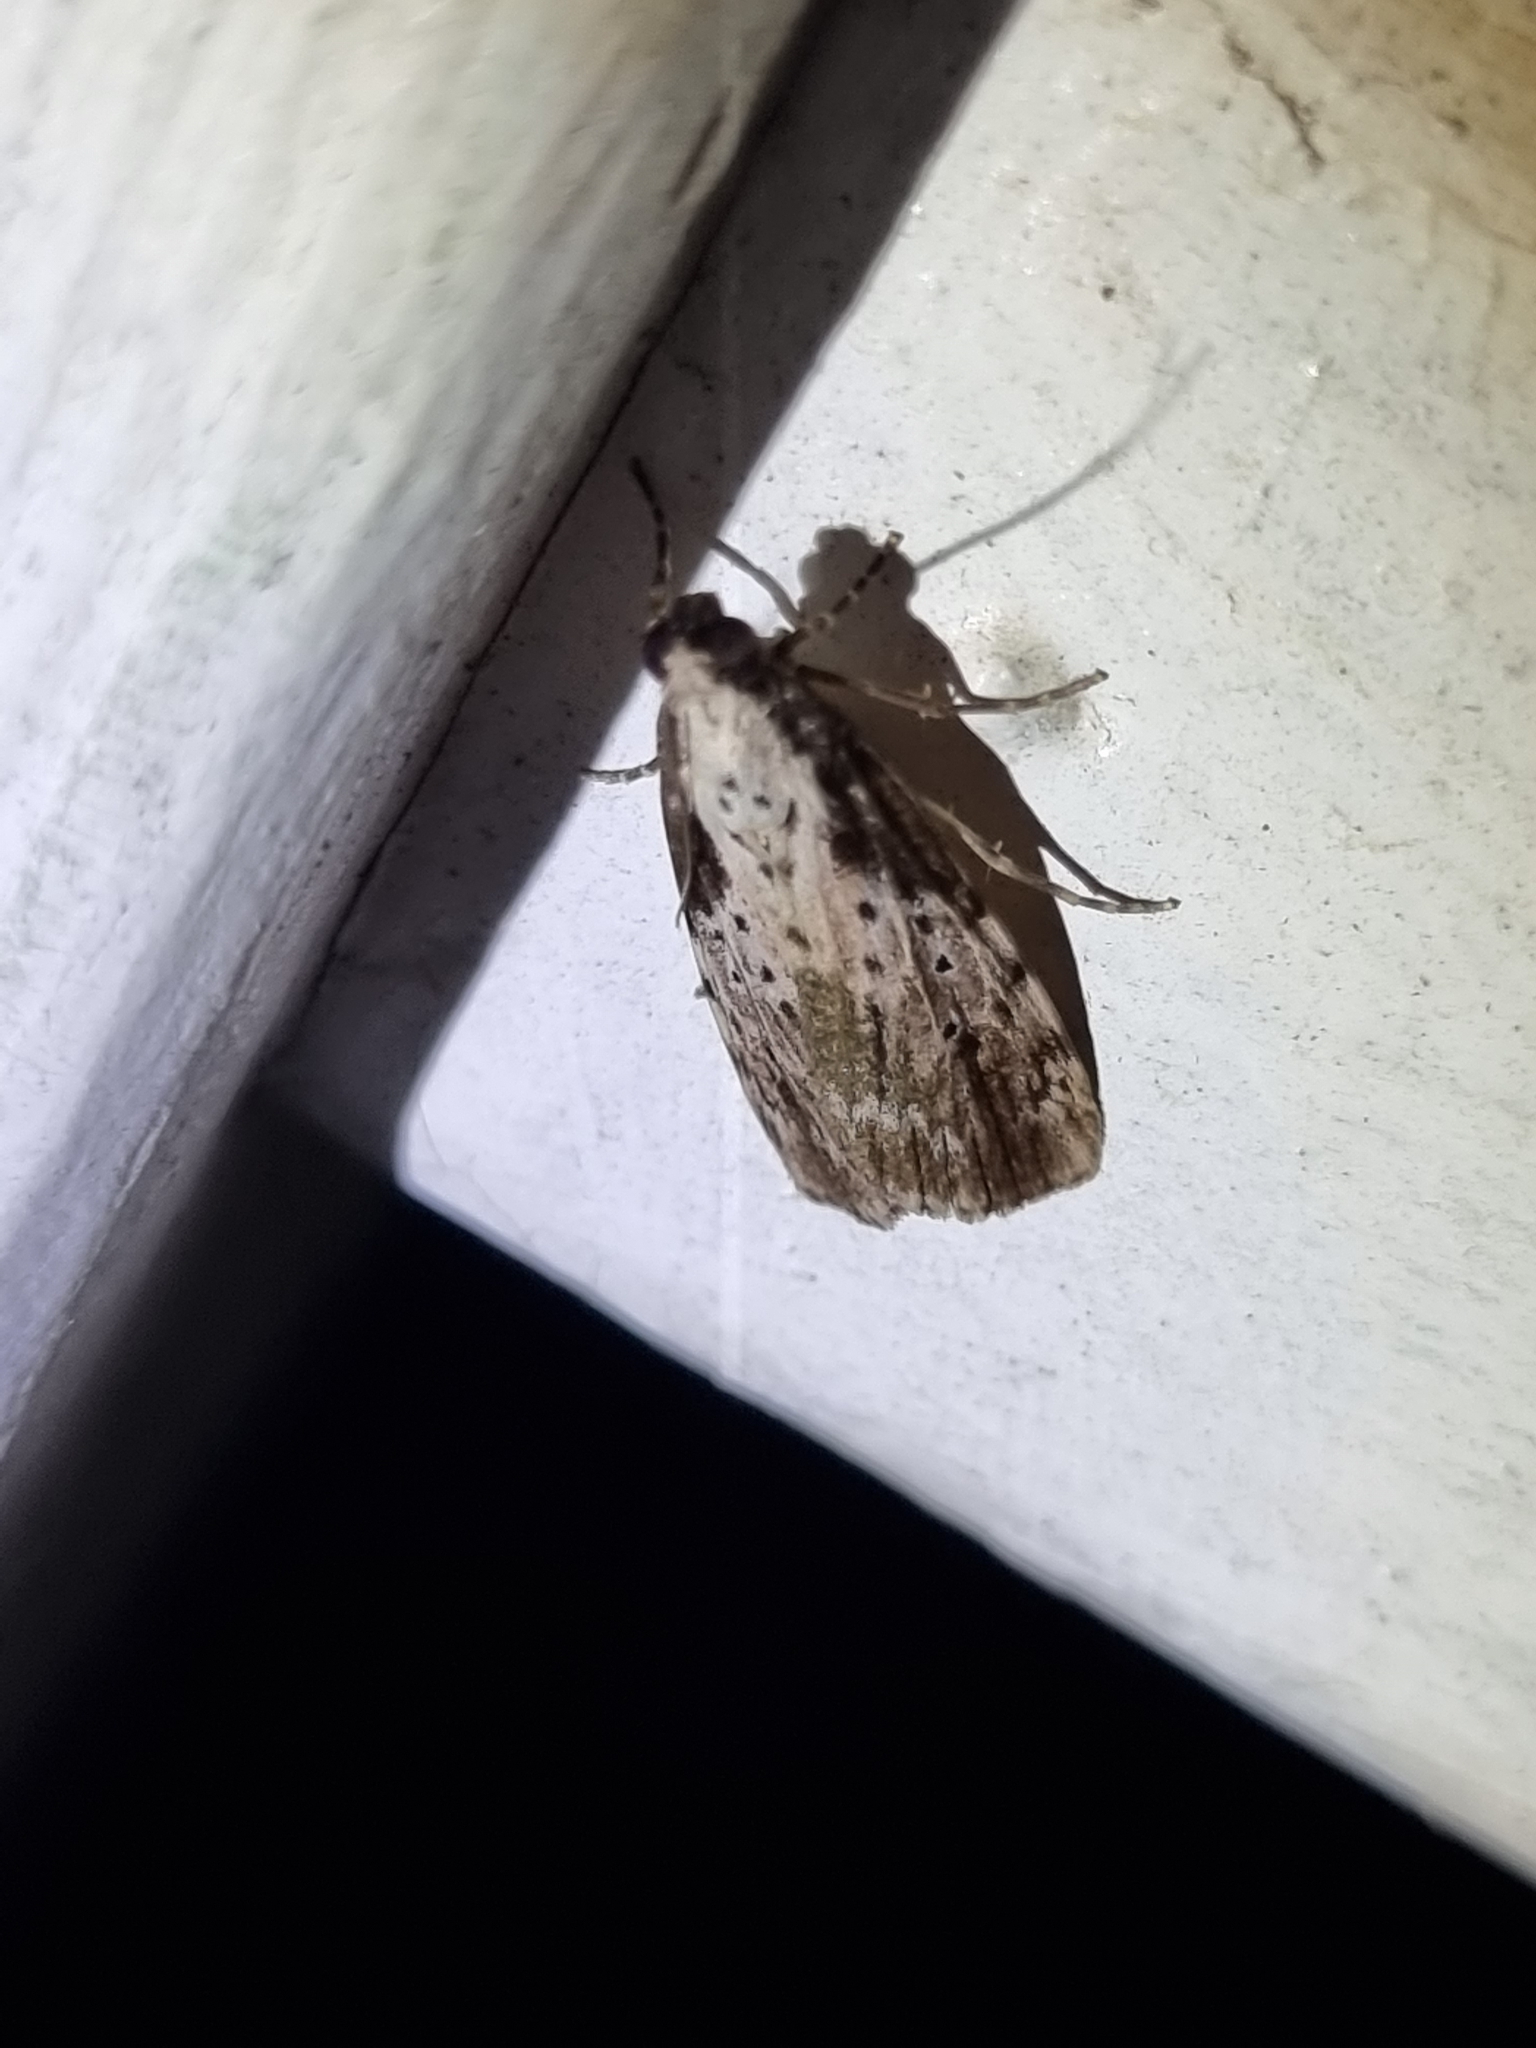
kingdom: Animalia
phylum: Arthropoda
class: Insecta
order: Lepidoptera
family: Erebidae
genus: Digama
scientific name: Digama Sommeria marmorea
